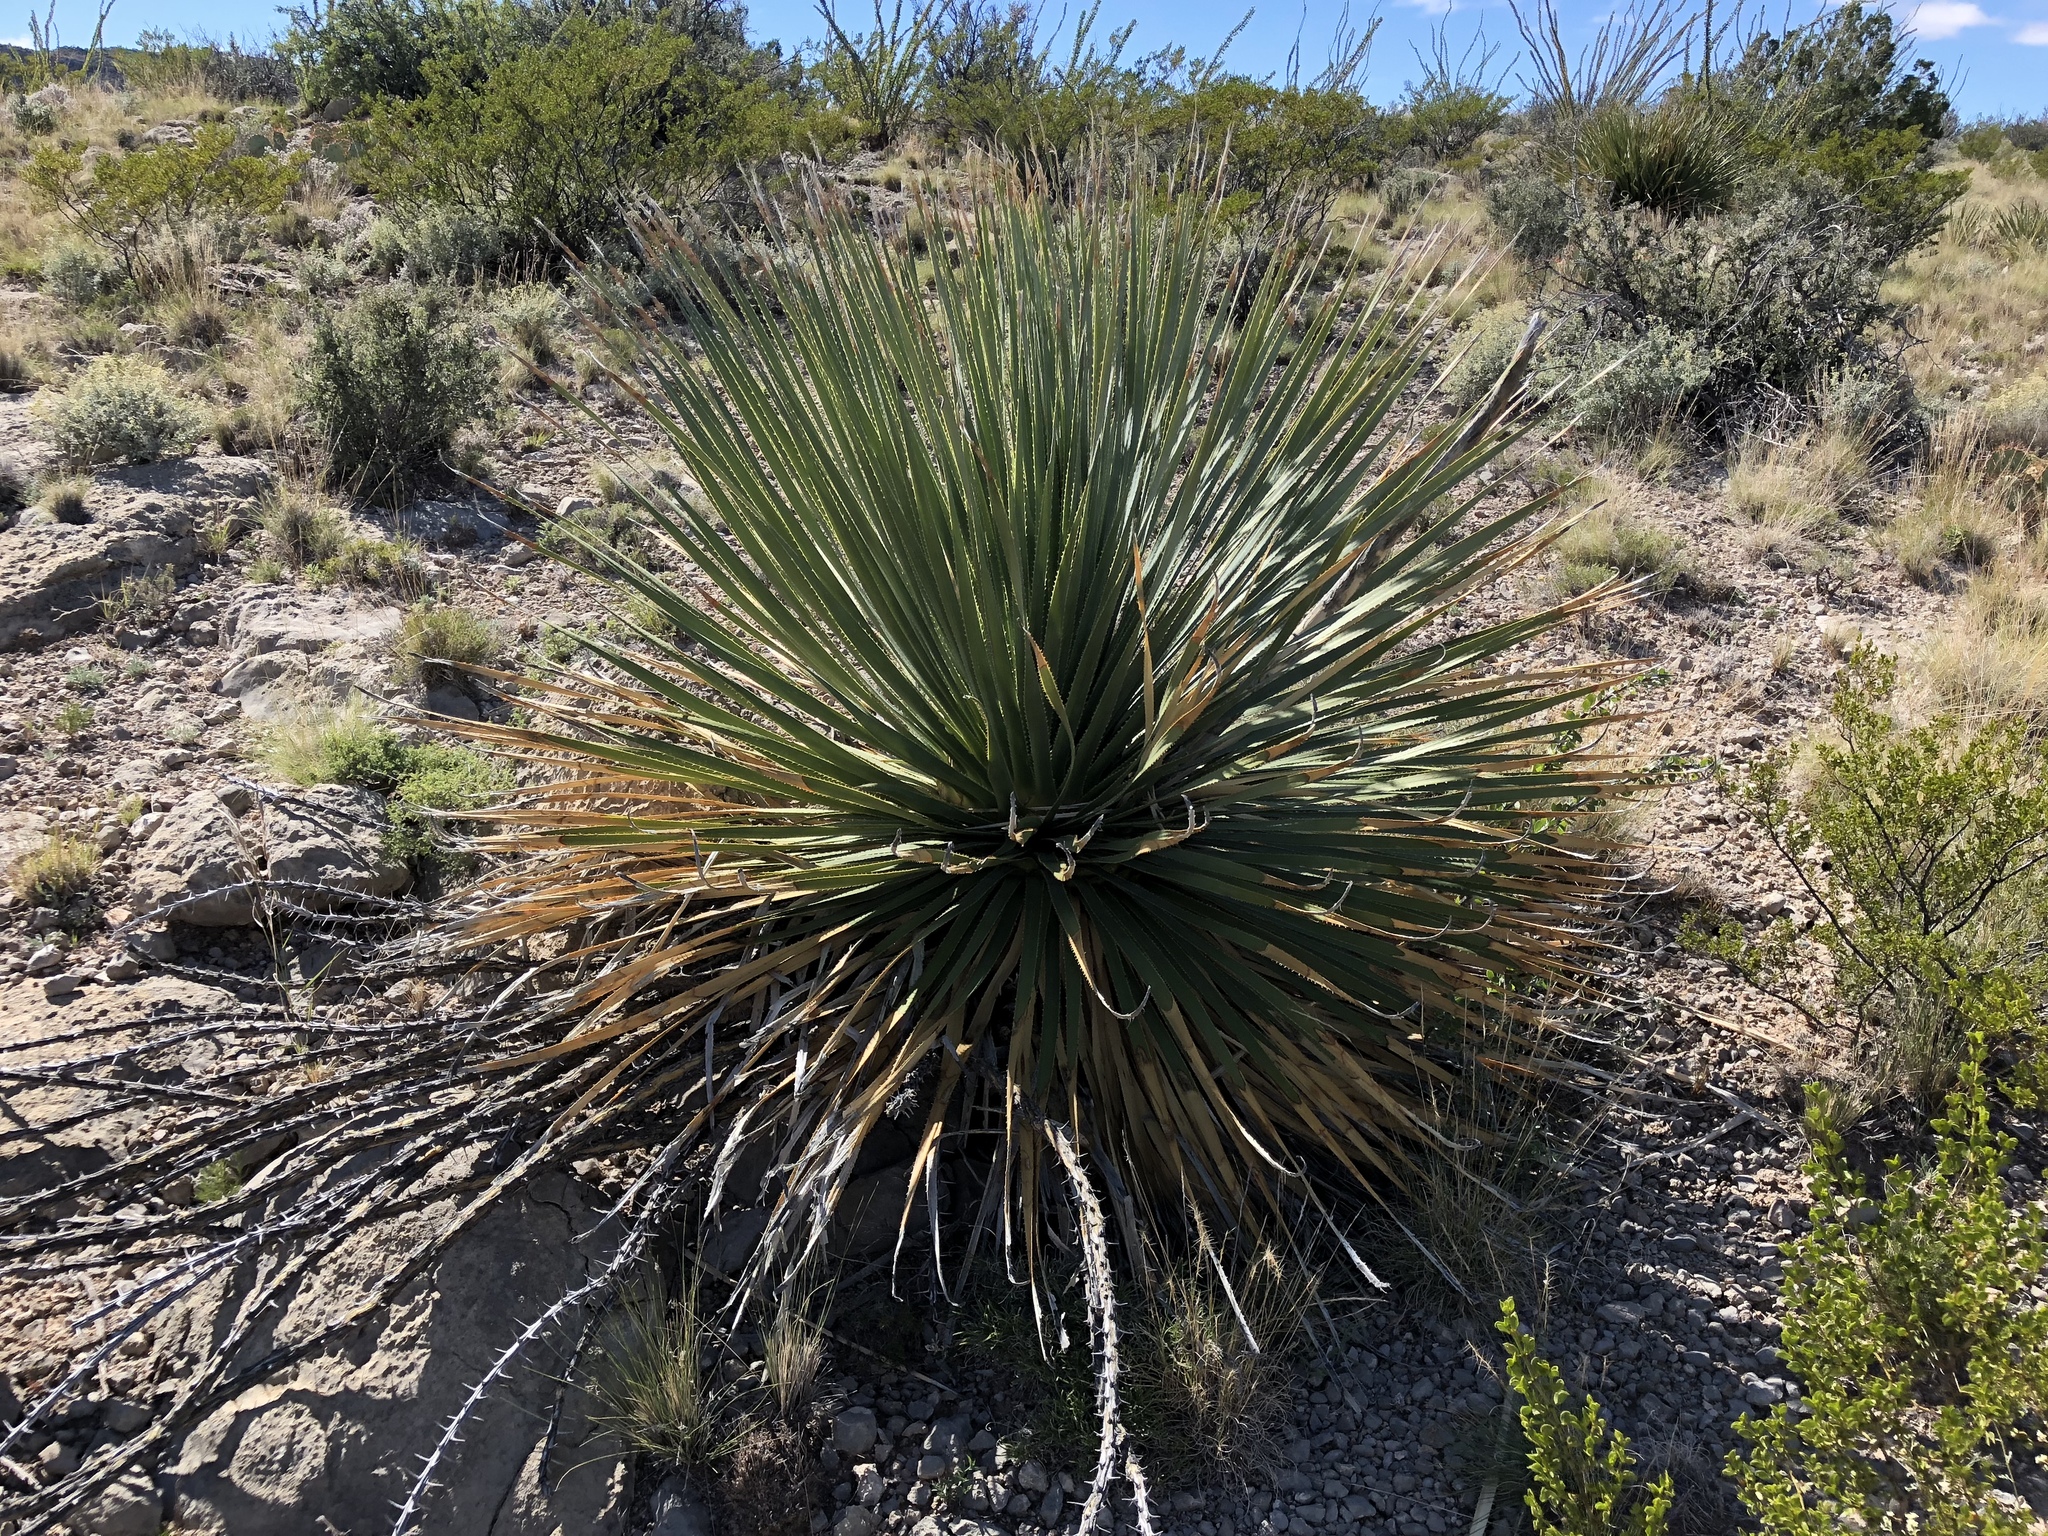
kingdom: Plantae
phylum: Tracheophyta
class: Liliopsida
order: Asparagales
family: Asparagaceae
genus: Dasylirion
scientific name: Dasylirion wheeleri
